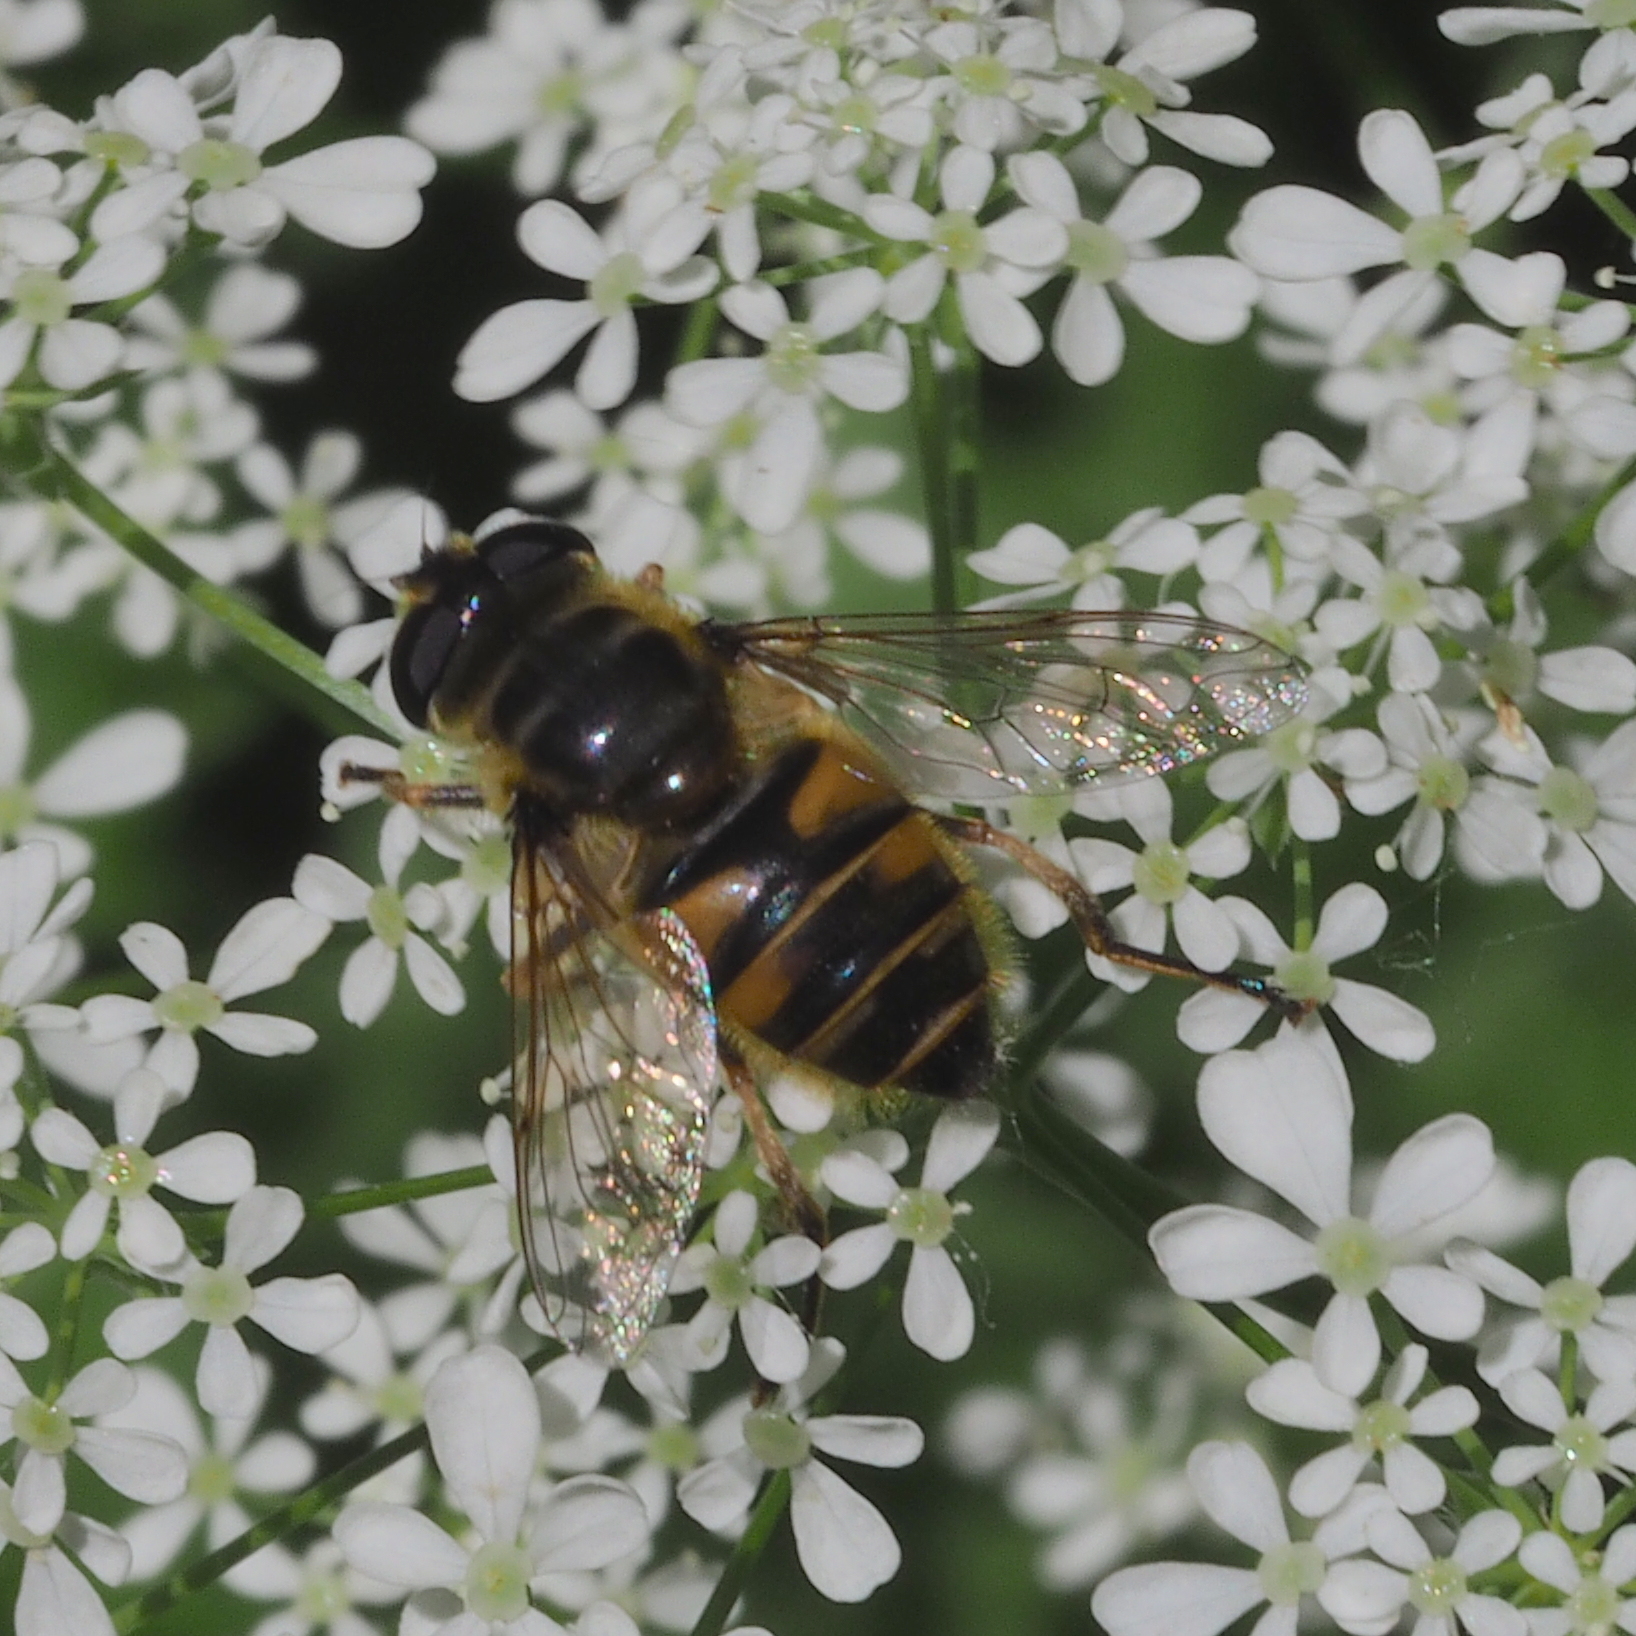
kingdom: Animalia
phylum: Arthropoda
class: Insecta
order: Diptera
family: Syrphidae
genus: Myathropa
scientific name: Myathropa florea
